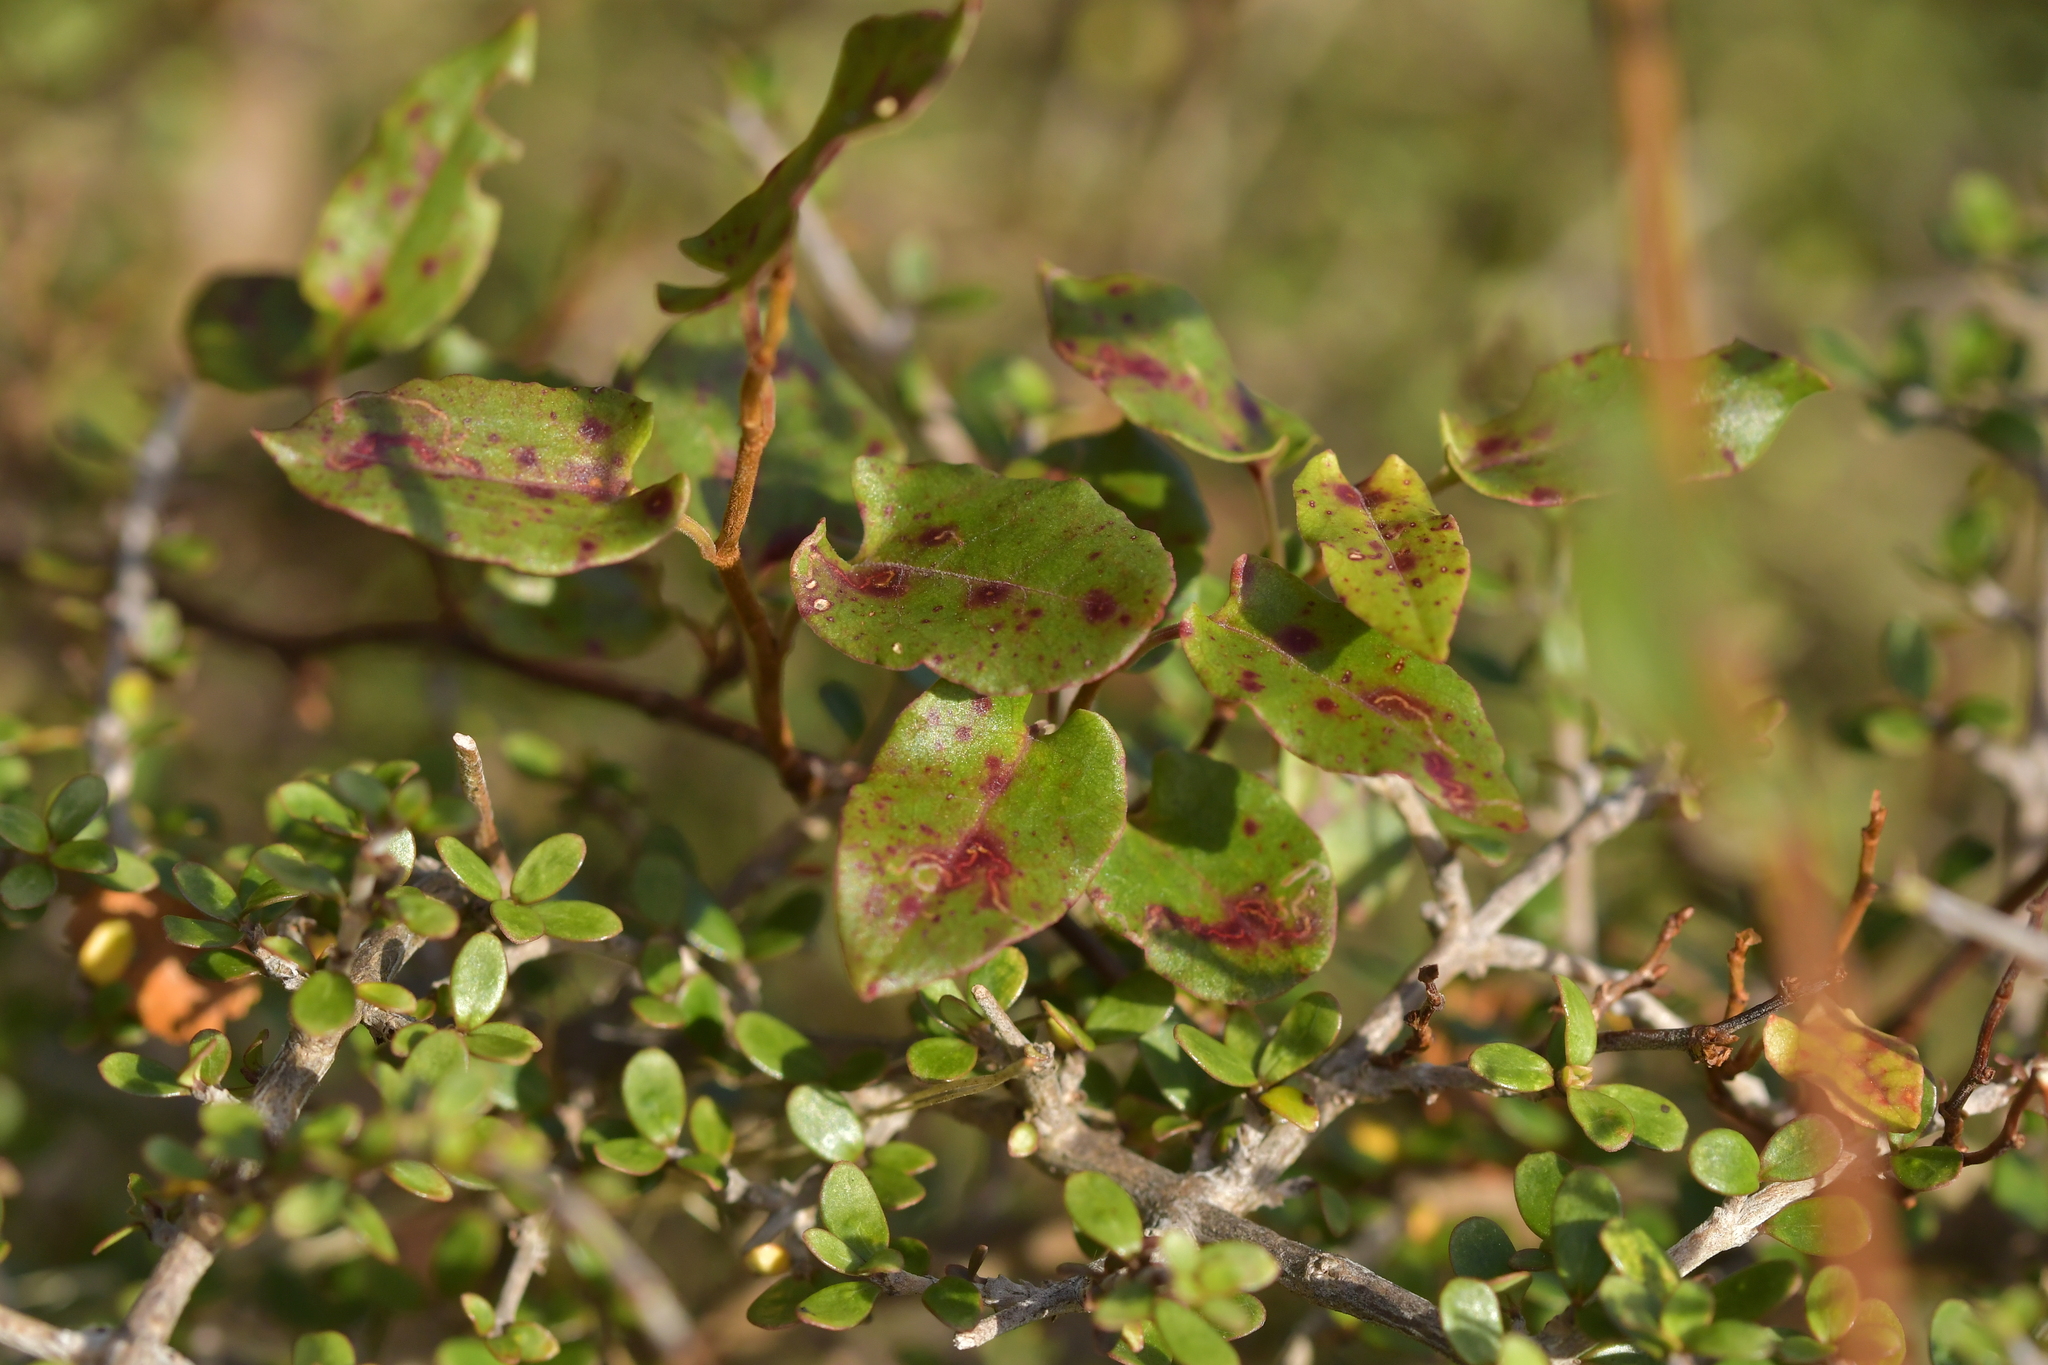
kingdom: Plantae
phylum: Tracheophyta
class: Magnoliopsida
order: Caryophyllales
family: Polygonaceae
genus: Muehlenbeckia
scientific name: Muehlenbeckia australis
